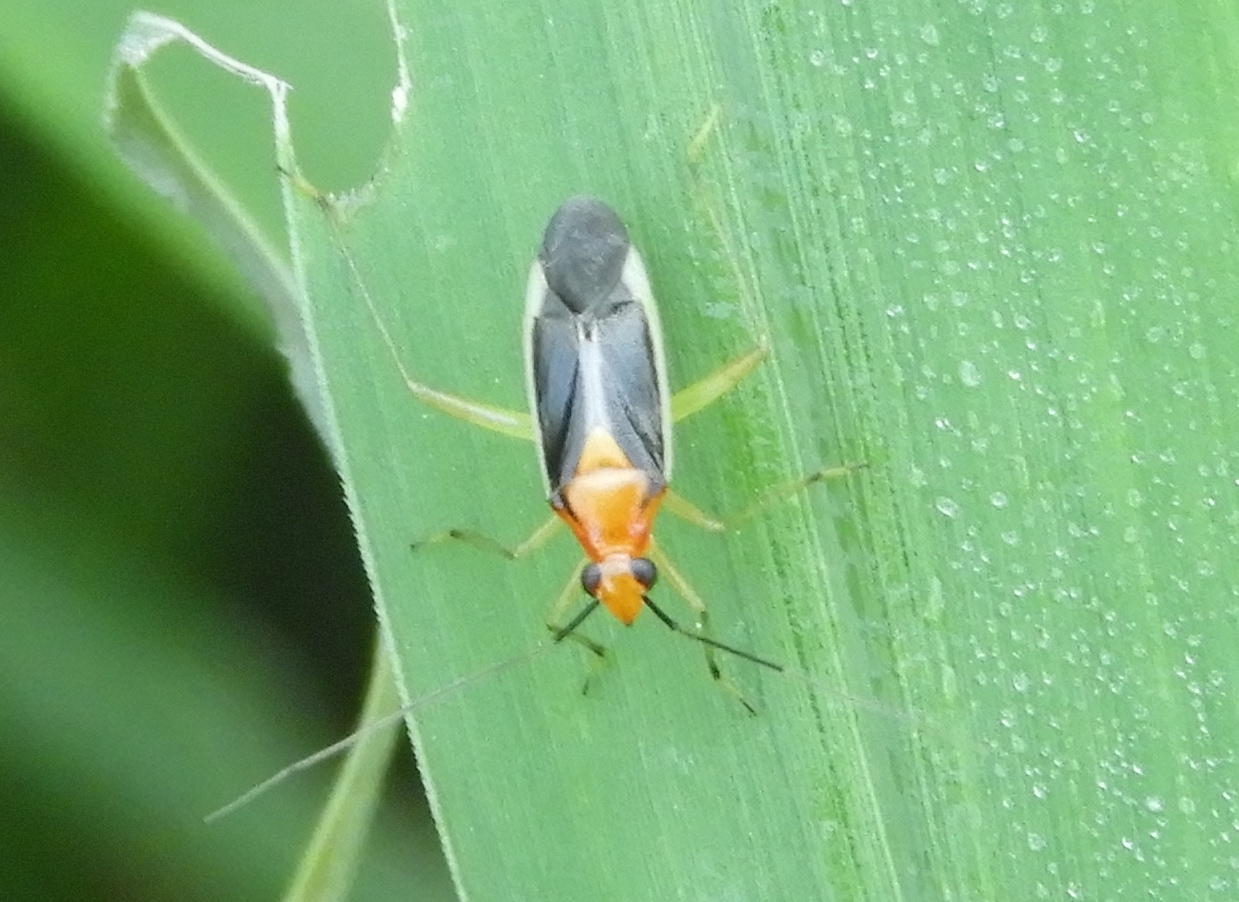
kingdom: Animalia
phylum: Arthropoda
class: Insecta
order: Hemiptera
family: Miridae
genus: Ganocapsus
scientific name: Ganocapsus filiformis
